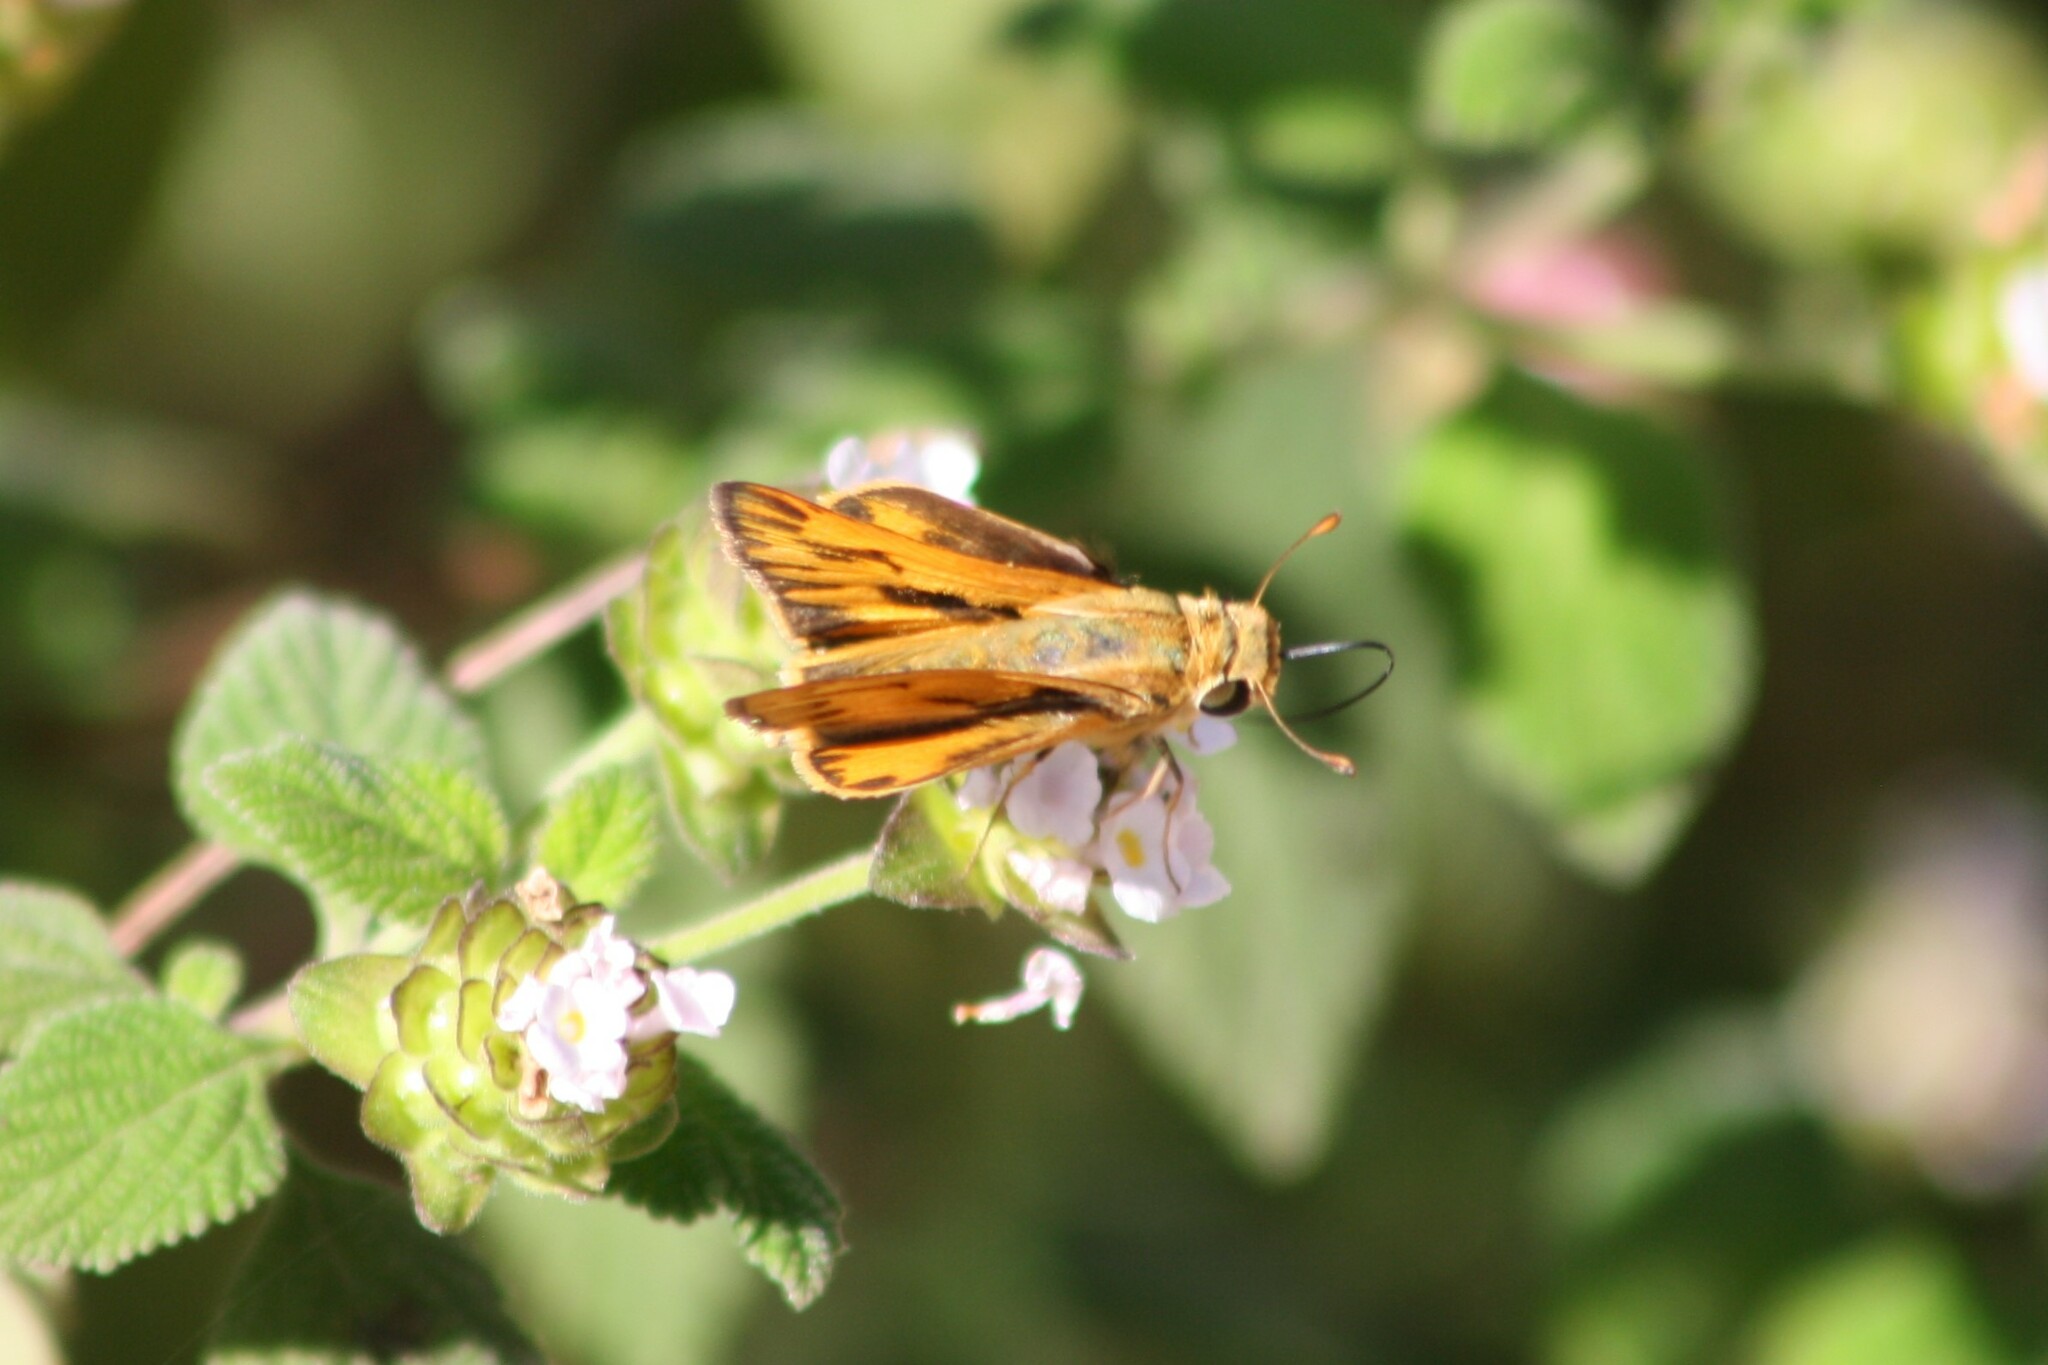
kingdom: Animalia
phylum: Arthropoda
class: Insecta
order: Lepidoptera
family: Hesperiidae
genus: Hylephila
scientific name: Hylephila phyleus
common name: Fiery skipper
